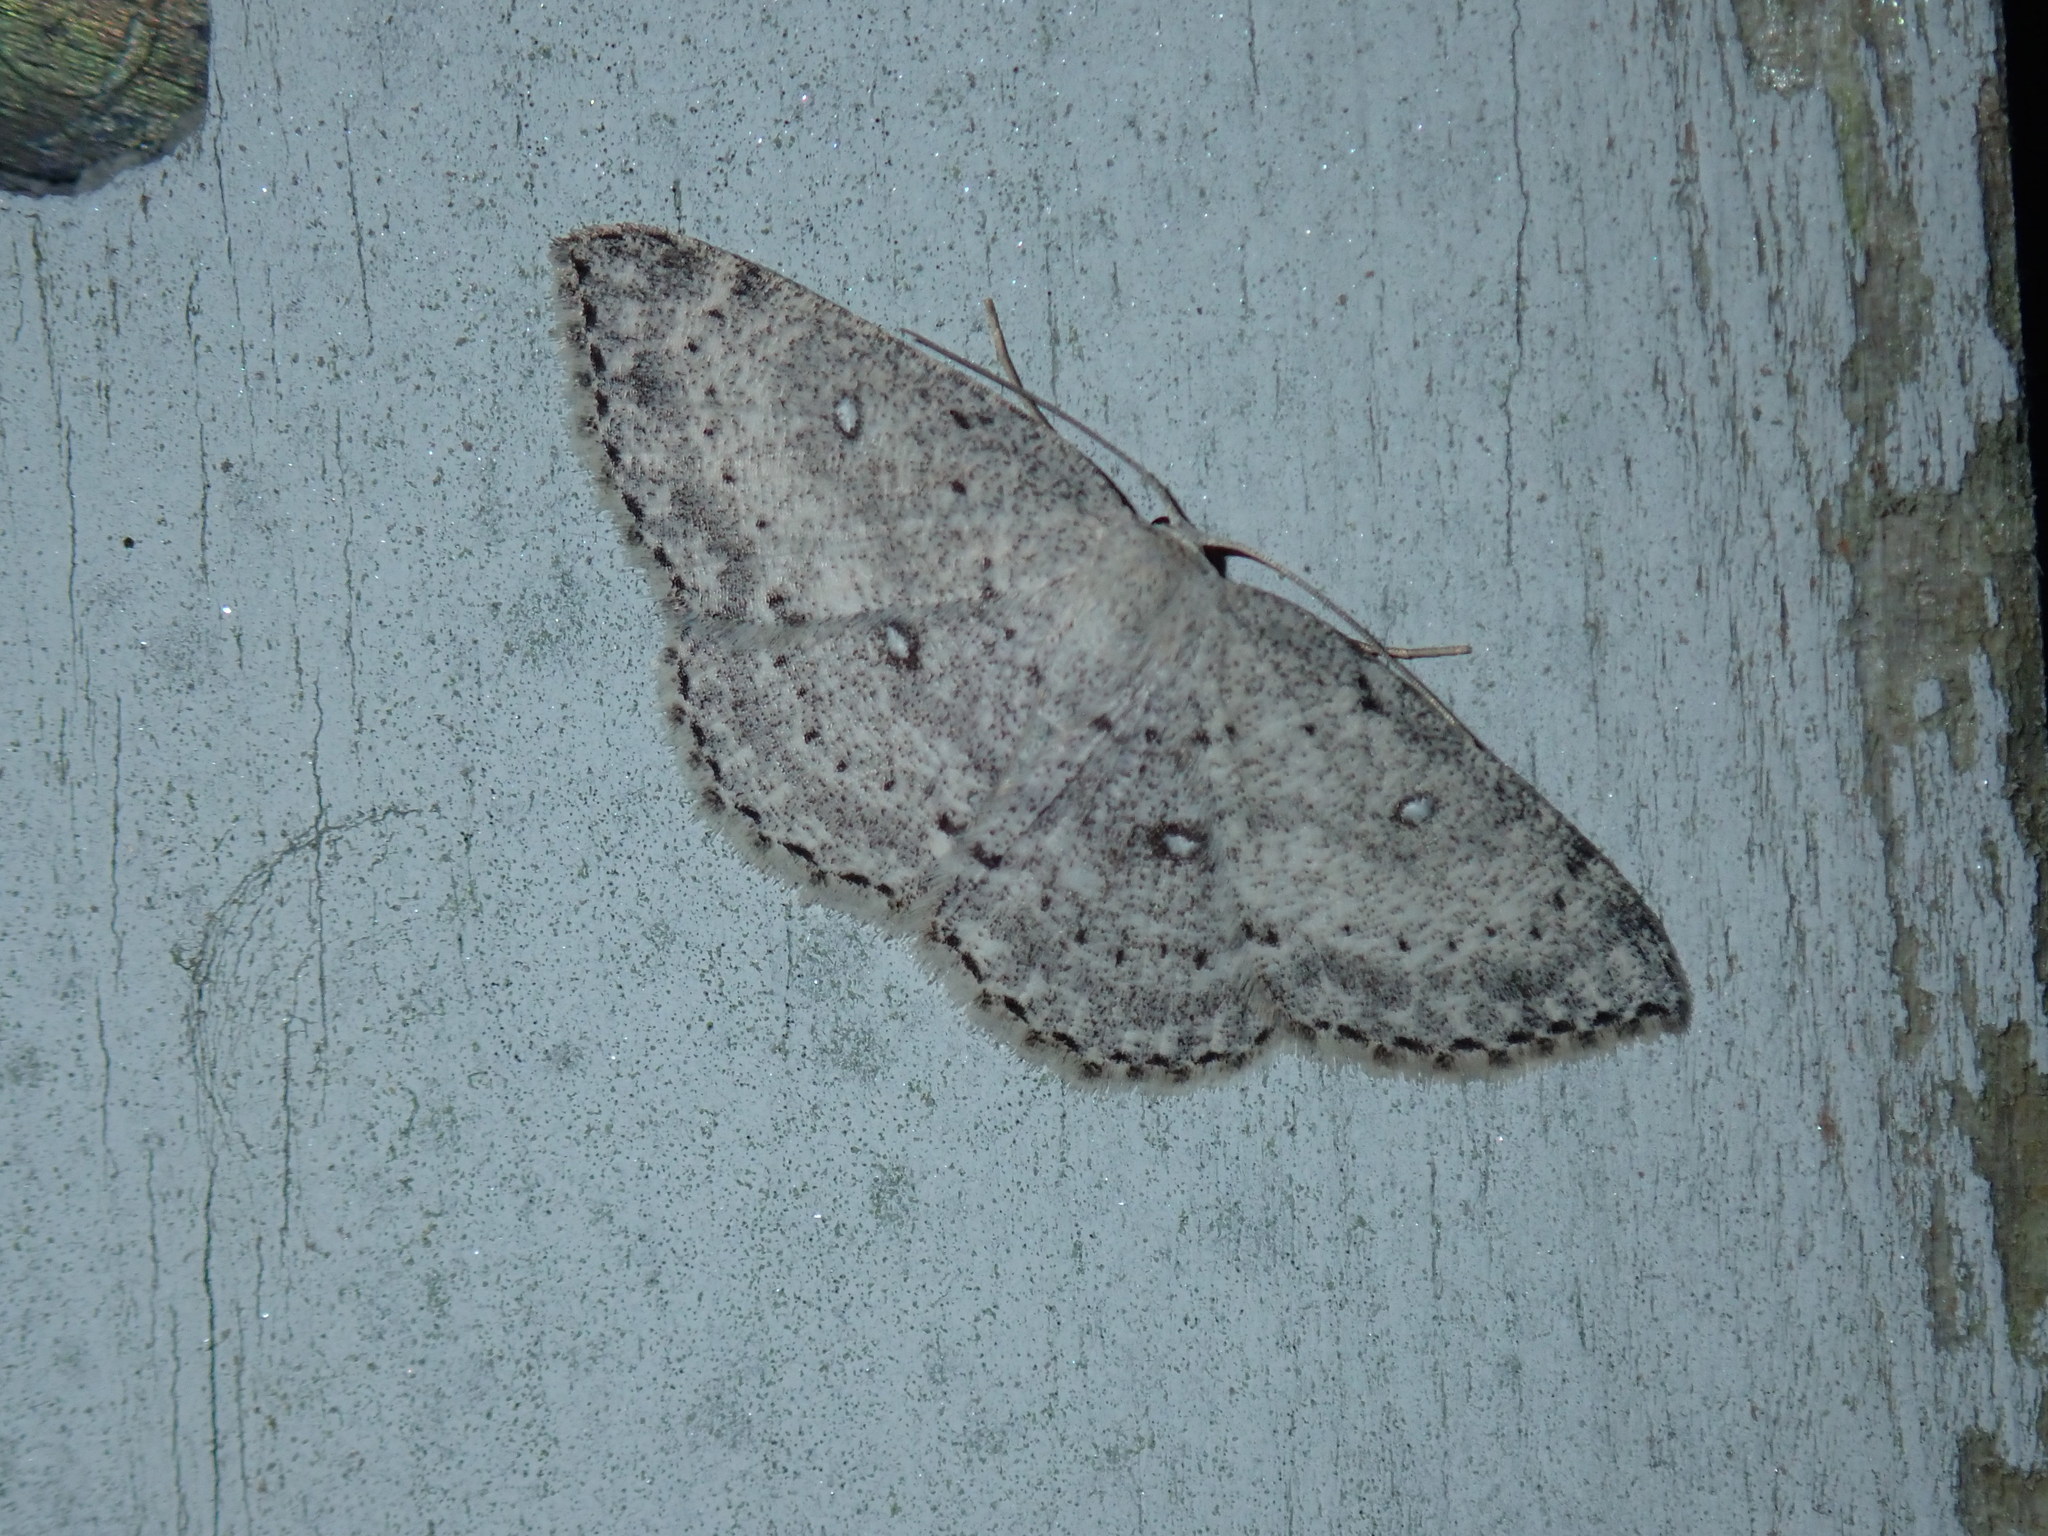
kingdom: Animalia
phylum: Arthropoda
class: Insecta
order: Lepidoptera
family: Geometridae
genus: Cyclophora
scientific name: Cyclophora pendulinaria
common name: Sweet fern geometer
